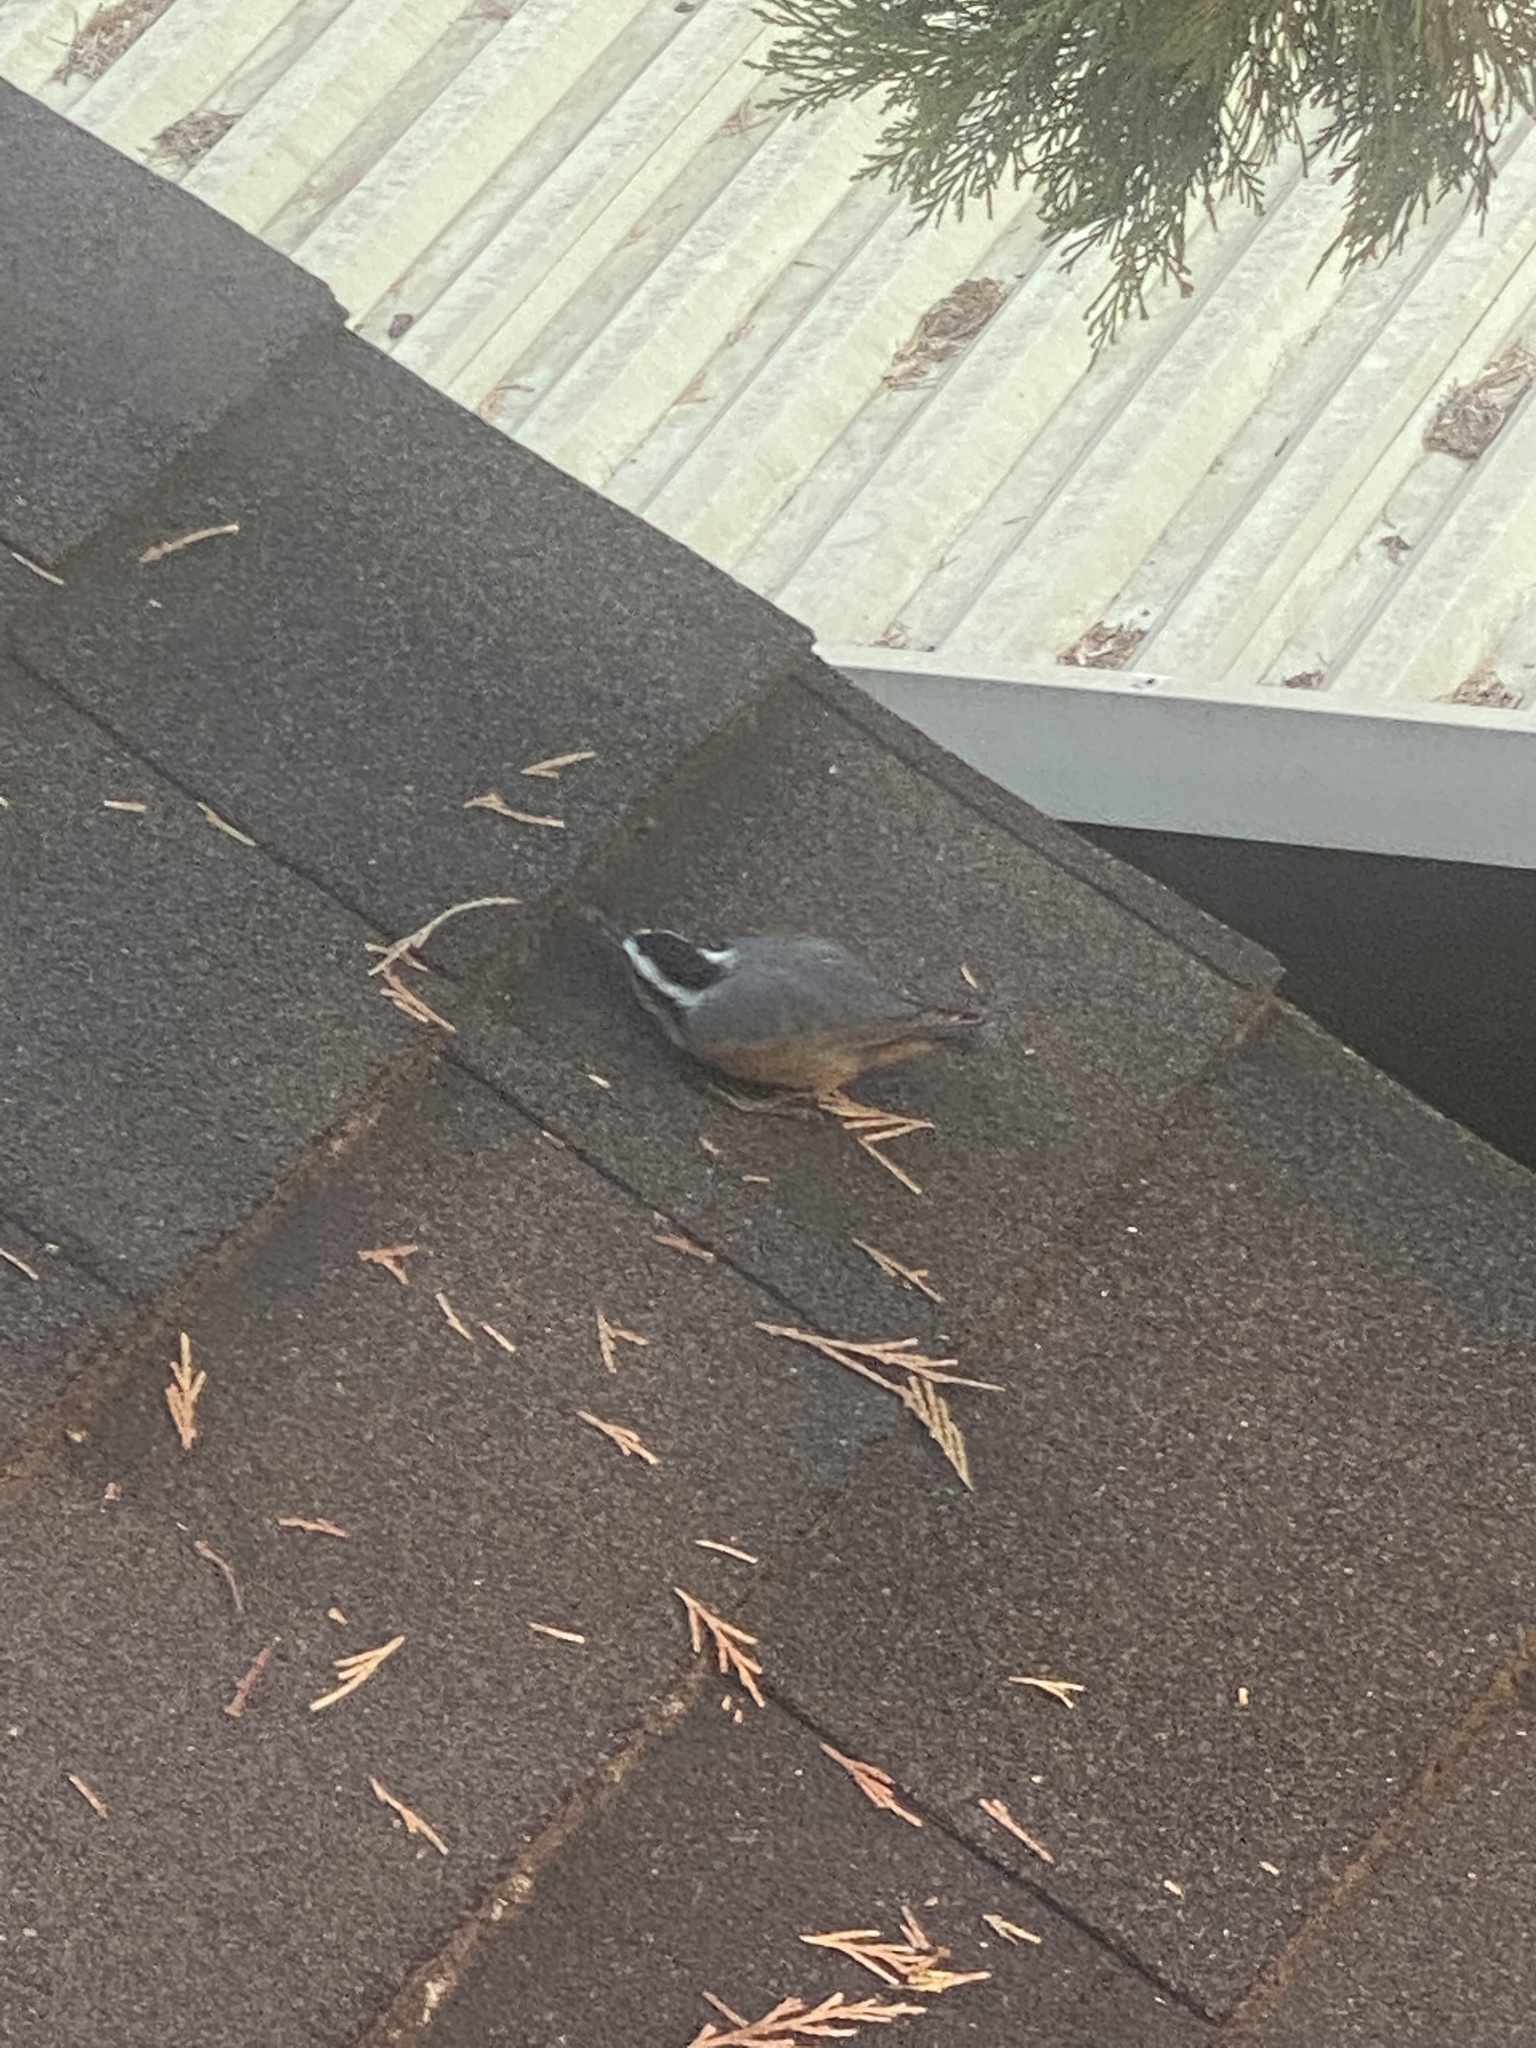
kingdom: Animalia
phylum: Chordata
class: Aves
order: Passeriformes
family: Sittidae
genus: Sitta
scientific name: Sitta canadensis
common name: Red-breasted nuthatch
